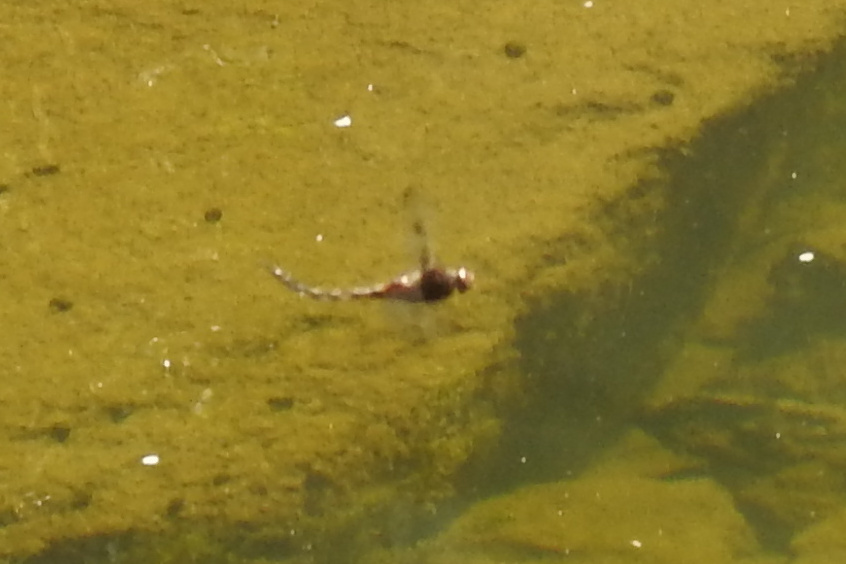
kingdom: Animalia
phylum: Arthropoda
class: Insecta
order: Odonata
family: Corduliidae
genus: Epitheca
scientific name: Epitheca princeps
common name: Prince baskettail
